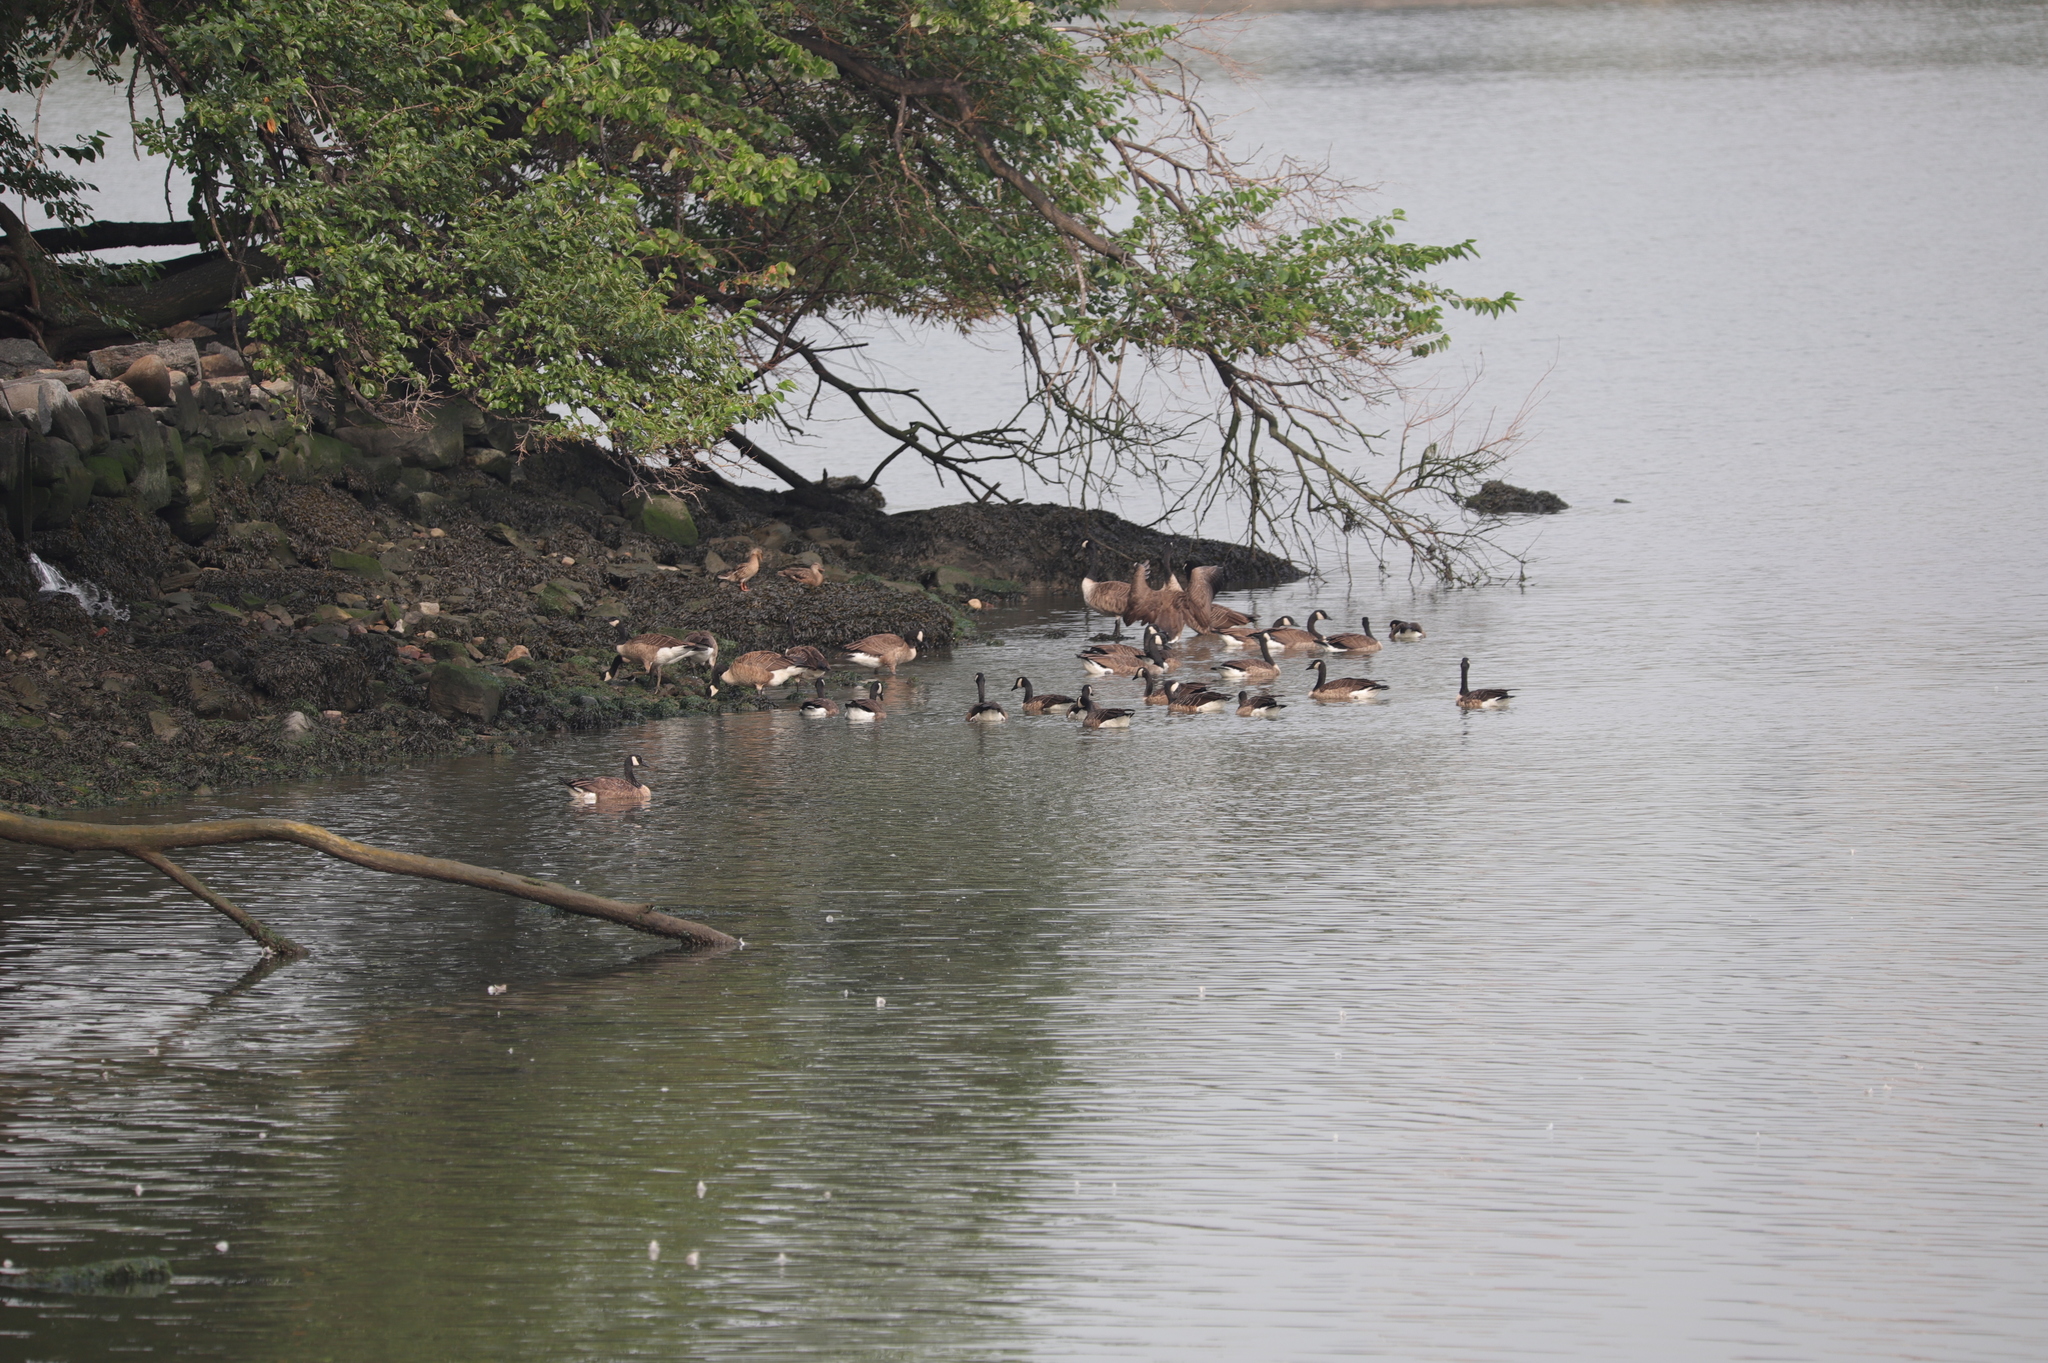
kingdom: Animalia
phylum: Chordata
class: Aves
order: Anseriformes
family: Anatidae
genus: Branta
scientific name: Branta canadensis
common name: Canada goose
